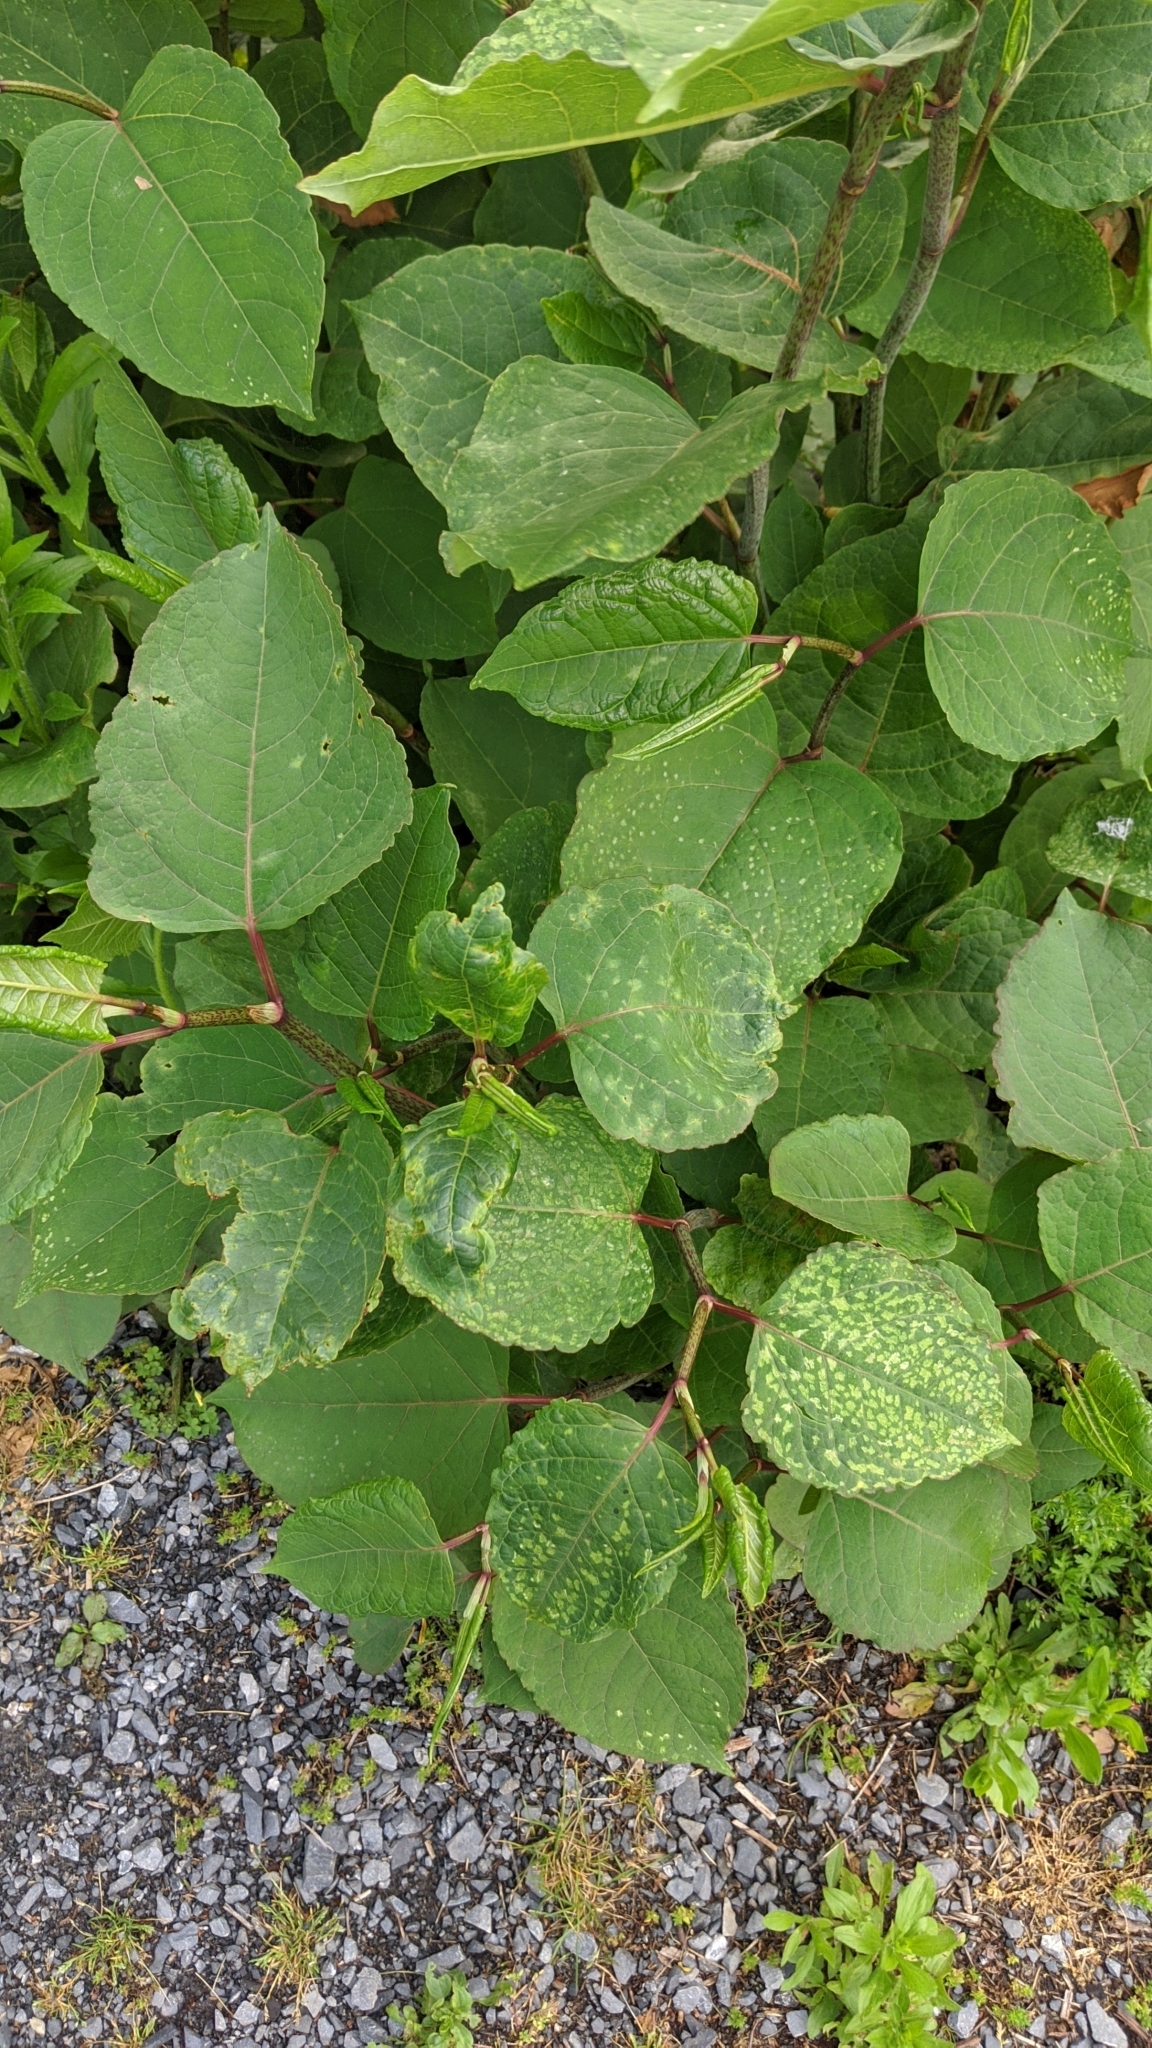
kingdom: Plantae
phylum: Tracheophyta
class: Magnoliopsida
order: Caryophyllales
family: Polygonaceae
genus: Reynoutria
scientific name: Reynoutria japonica
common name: Japanese knotweed
